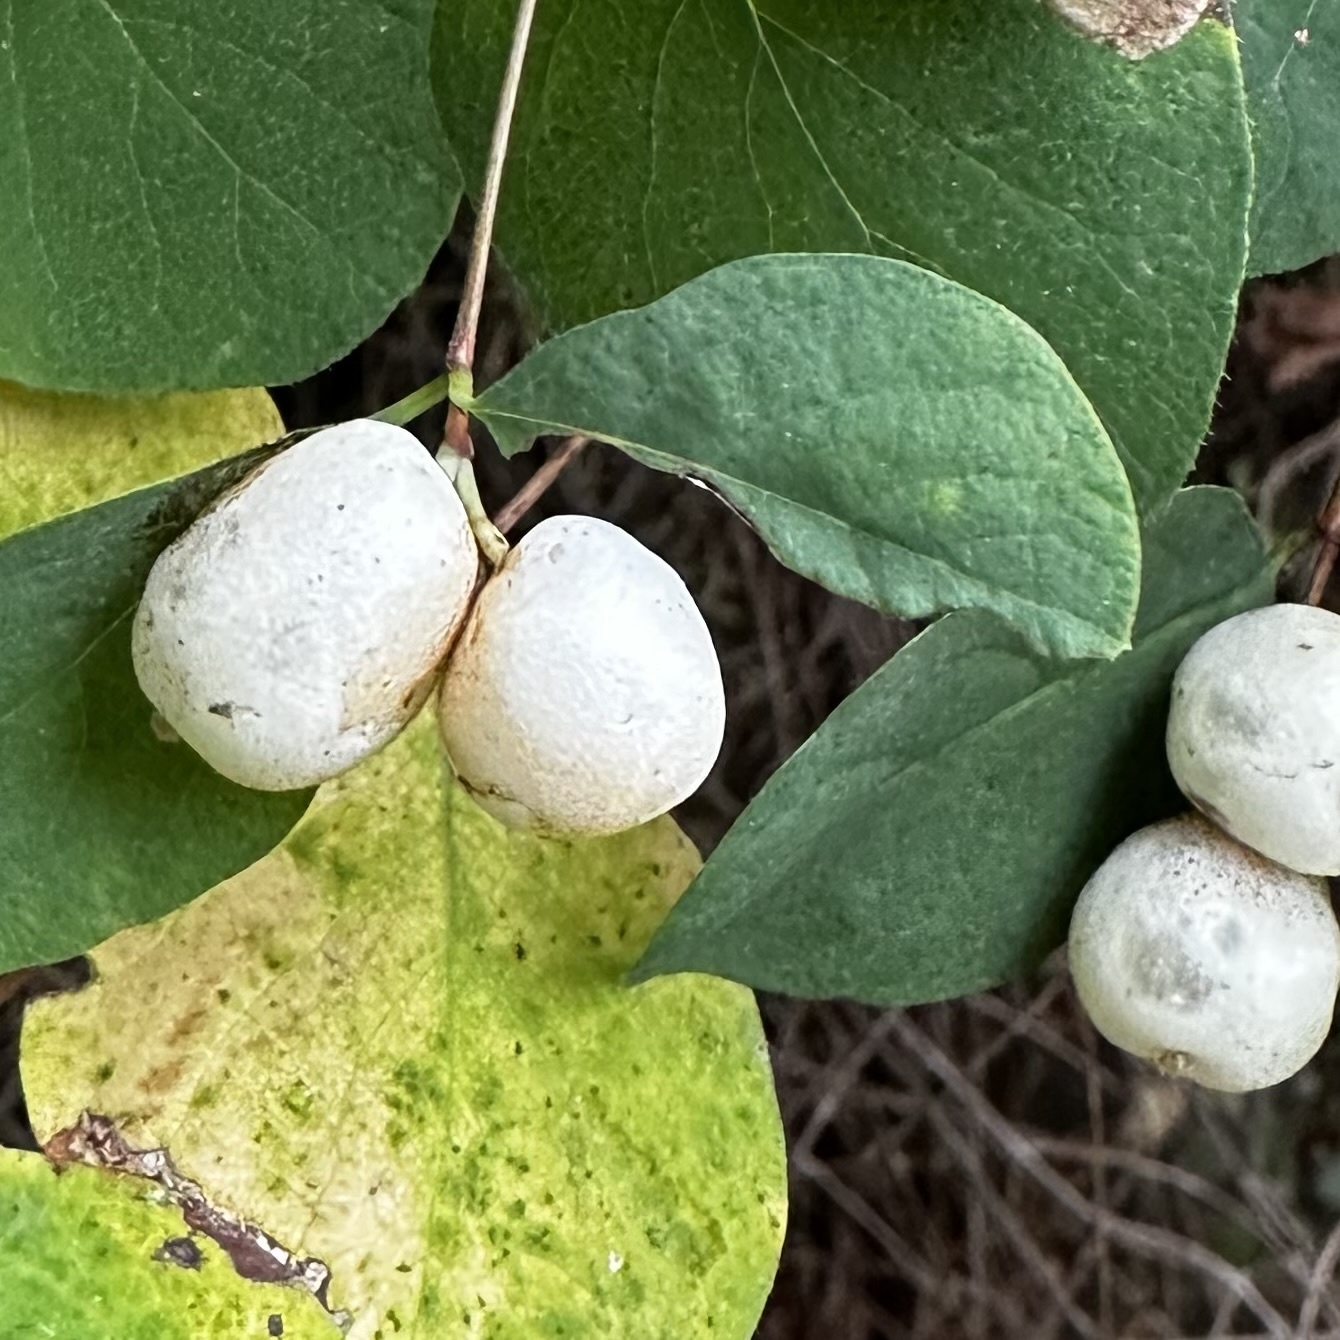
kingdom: Plantae
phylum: Tracheophyta
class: Magnoliopsida
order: Dipsacales
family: Caprifoliaceae
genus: Symphoricarpos
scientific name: Symphoricarpos albus
